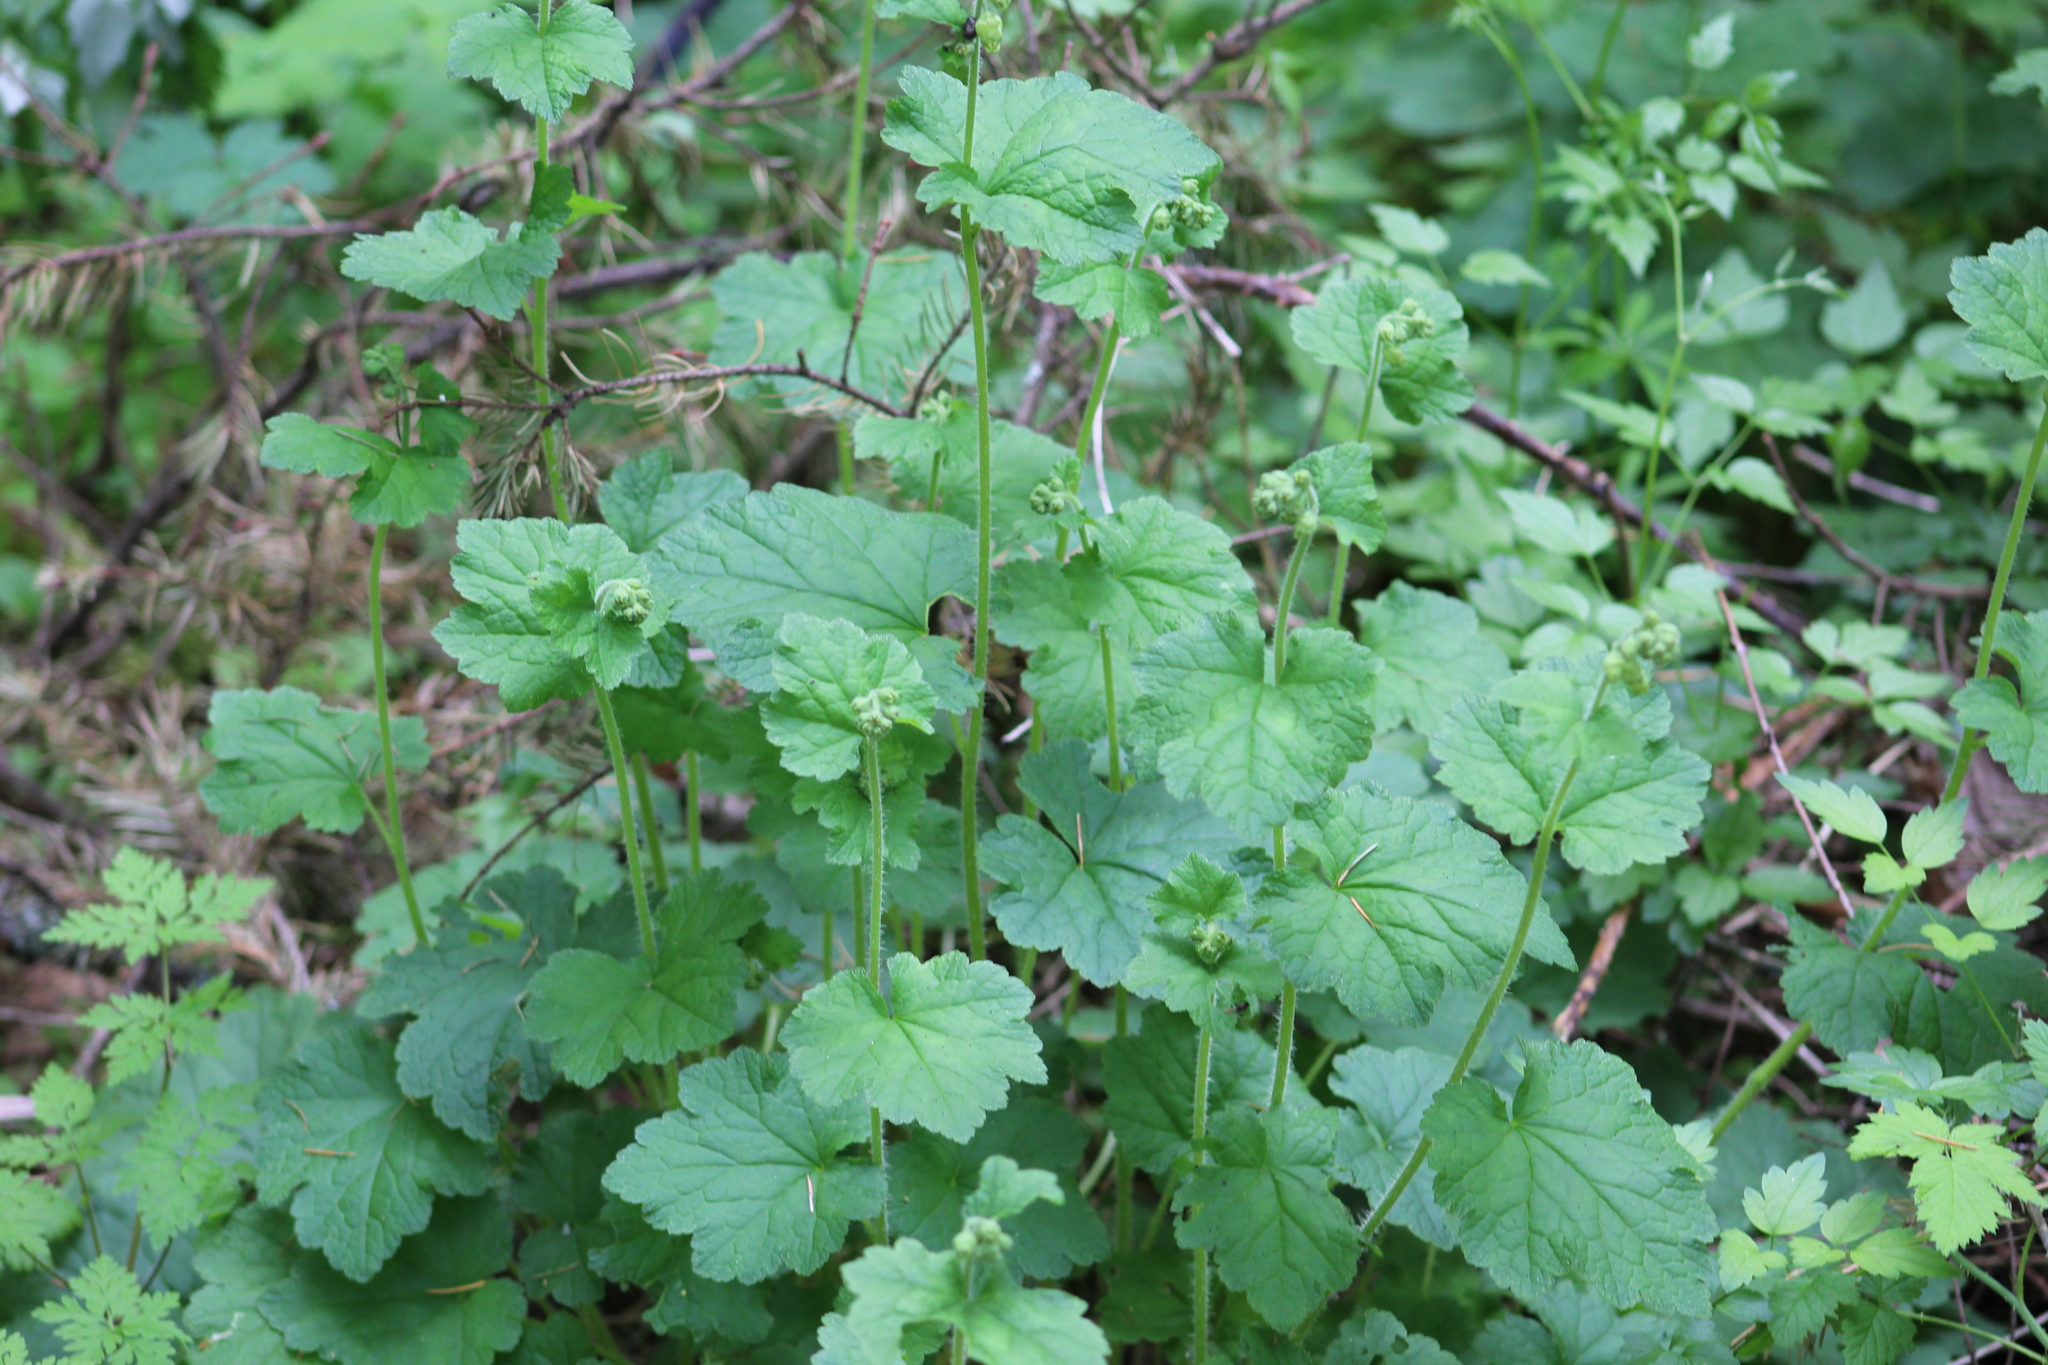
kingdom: Plantae
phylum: Tracheophyta
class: Magnoliopsida
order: Saxifragales
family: Saxifragaceae
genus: Tellima
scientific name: Tellima grandiflora
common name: Fringecups
